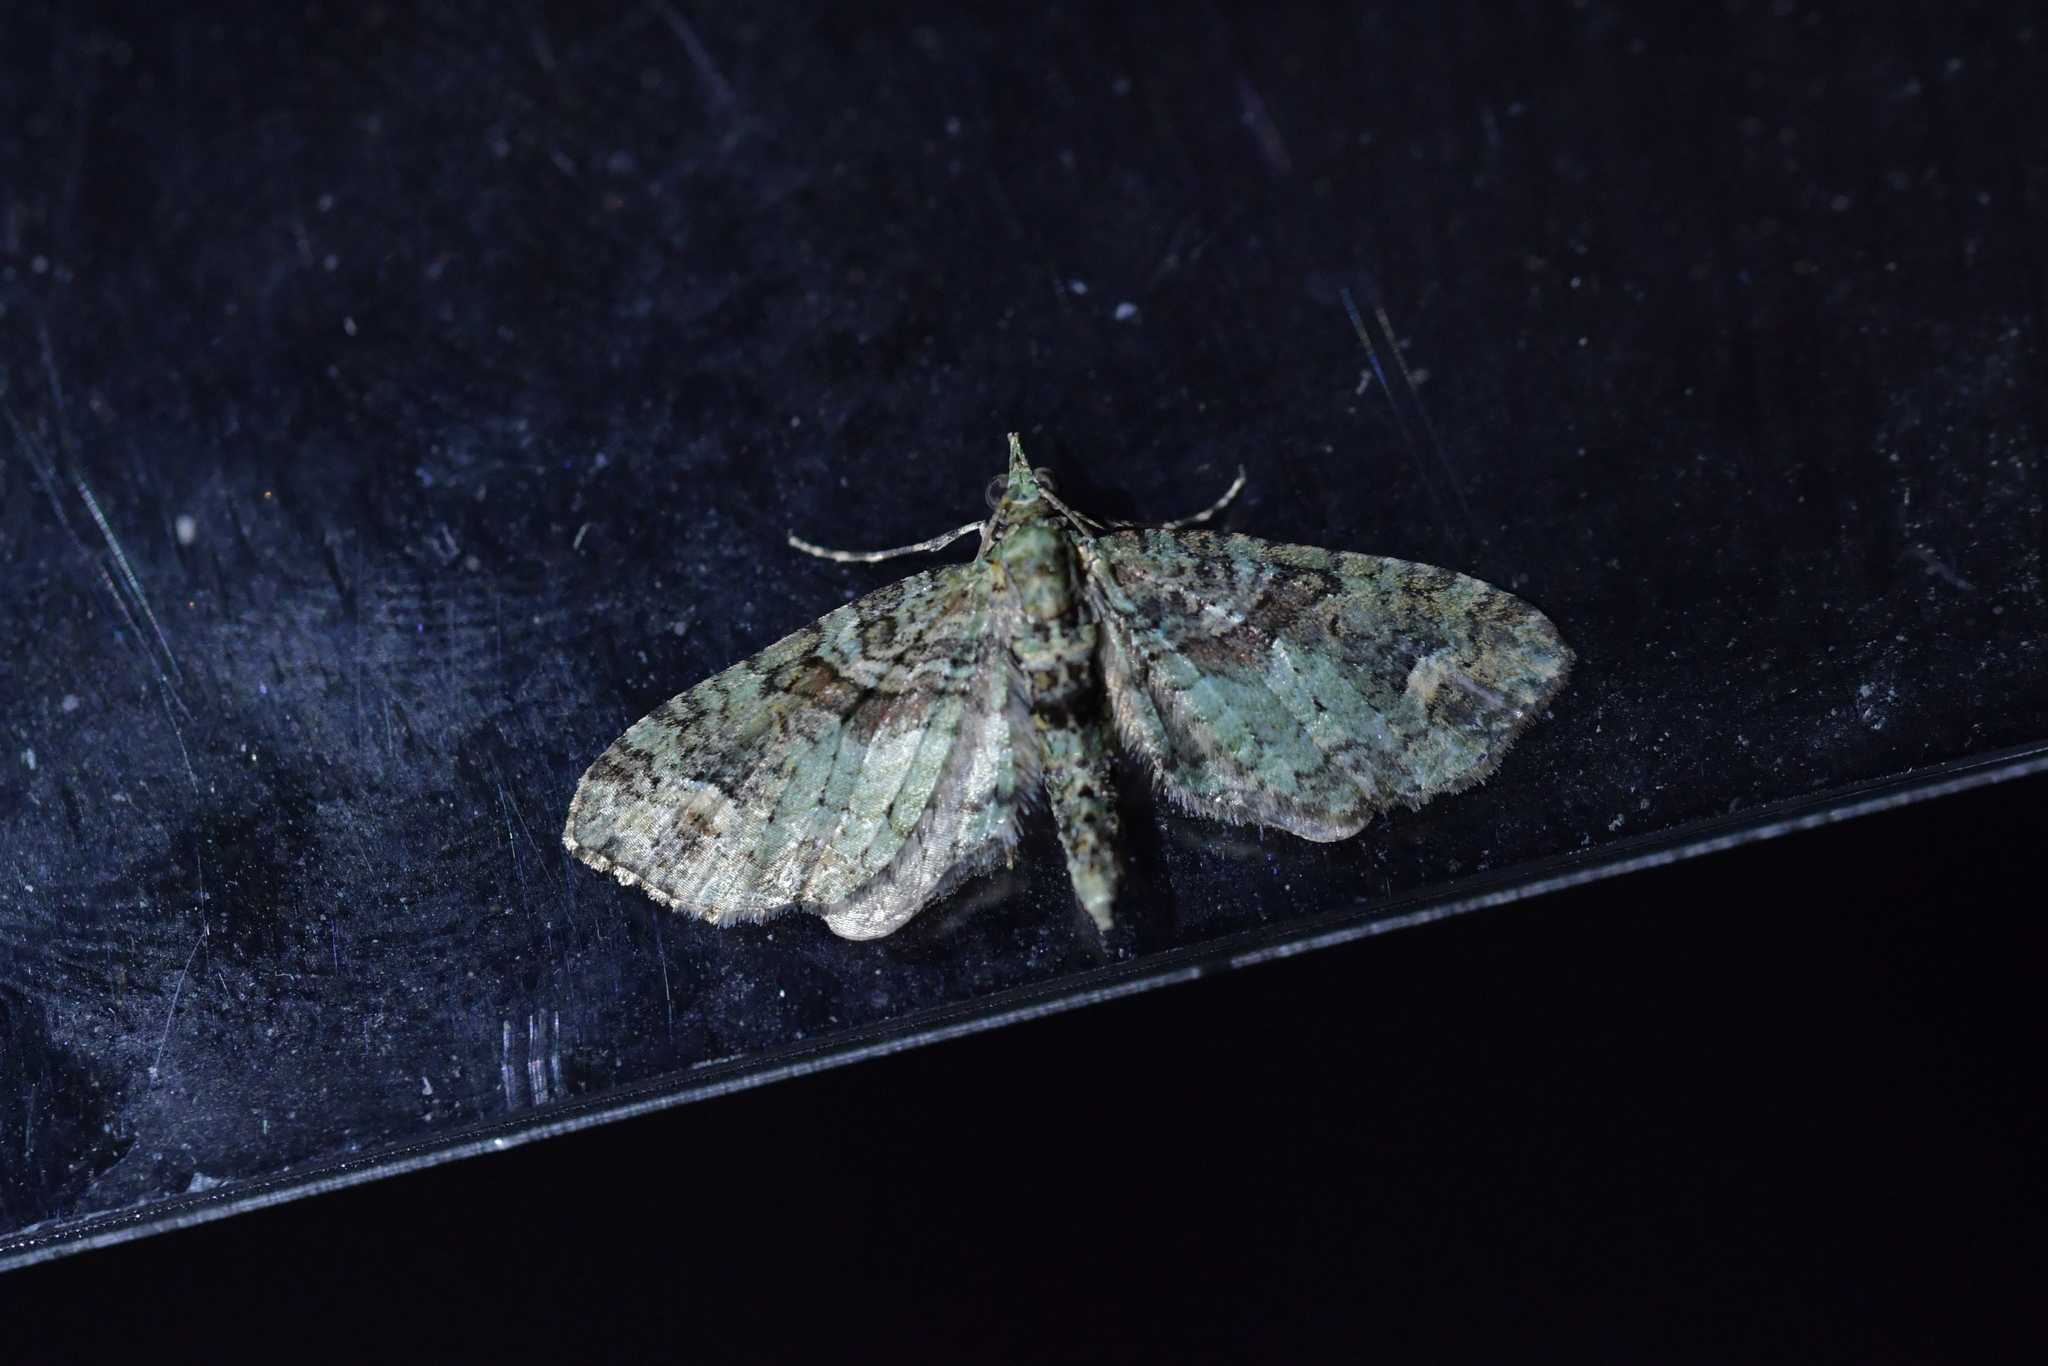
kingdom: Animalia
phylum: Arthropoda
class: Insecta
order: Lepidoptera
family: Geometridae
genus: Idaea
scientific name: Idaea mutanda
